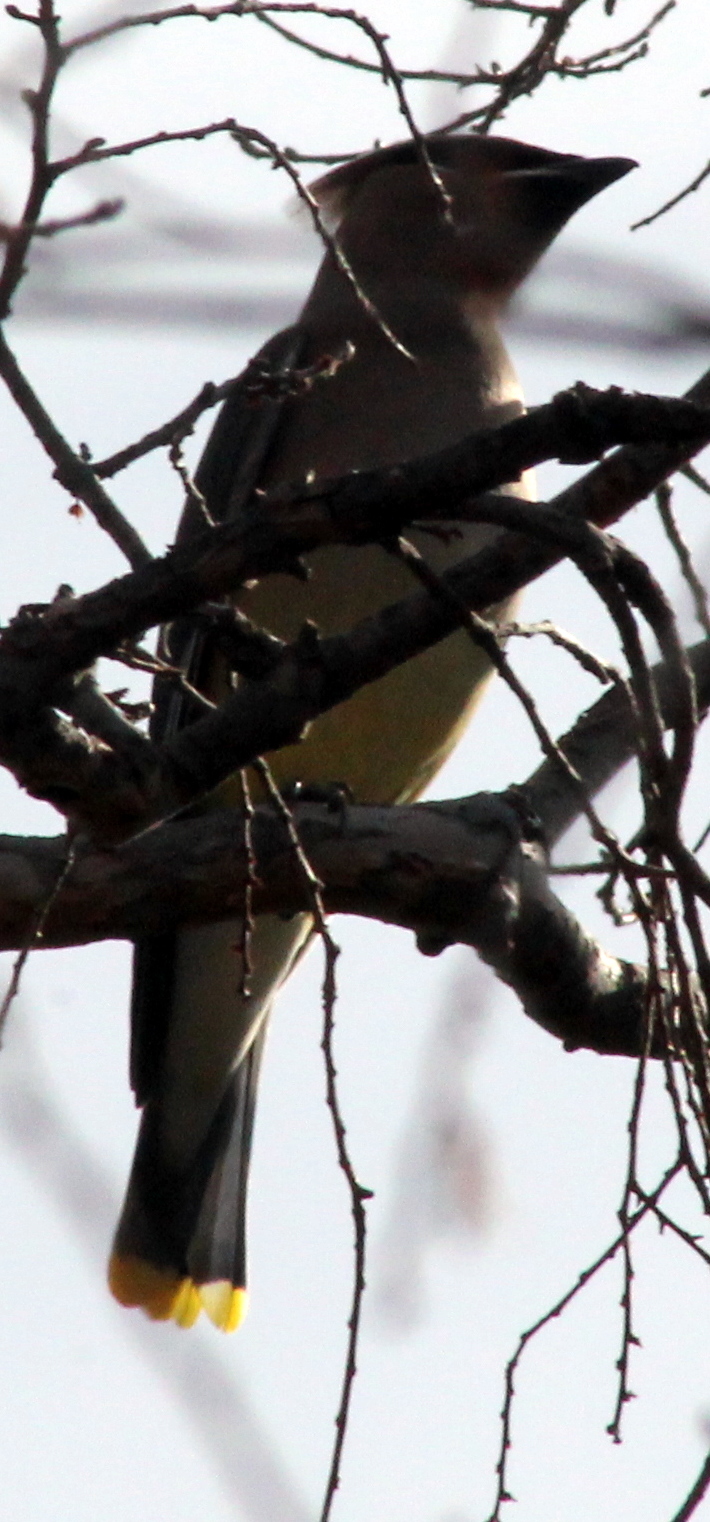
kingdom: Animalia
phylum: Chordata
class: Aves
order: Passeriformes
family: Bombycillidae
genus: Bombycilla
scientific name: Bombycilla cedrorum
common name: Cedar waxwing
